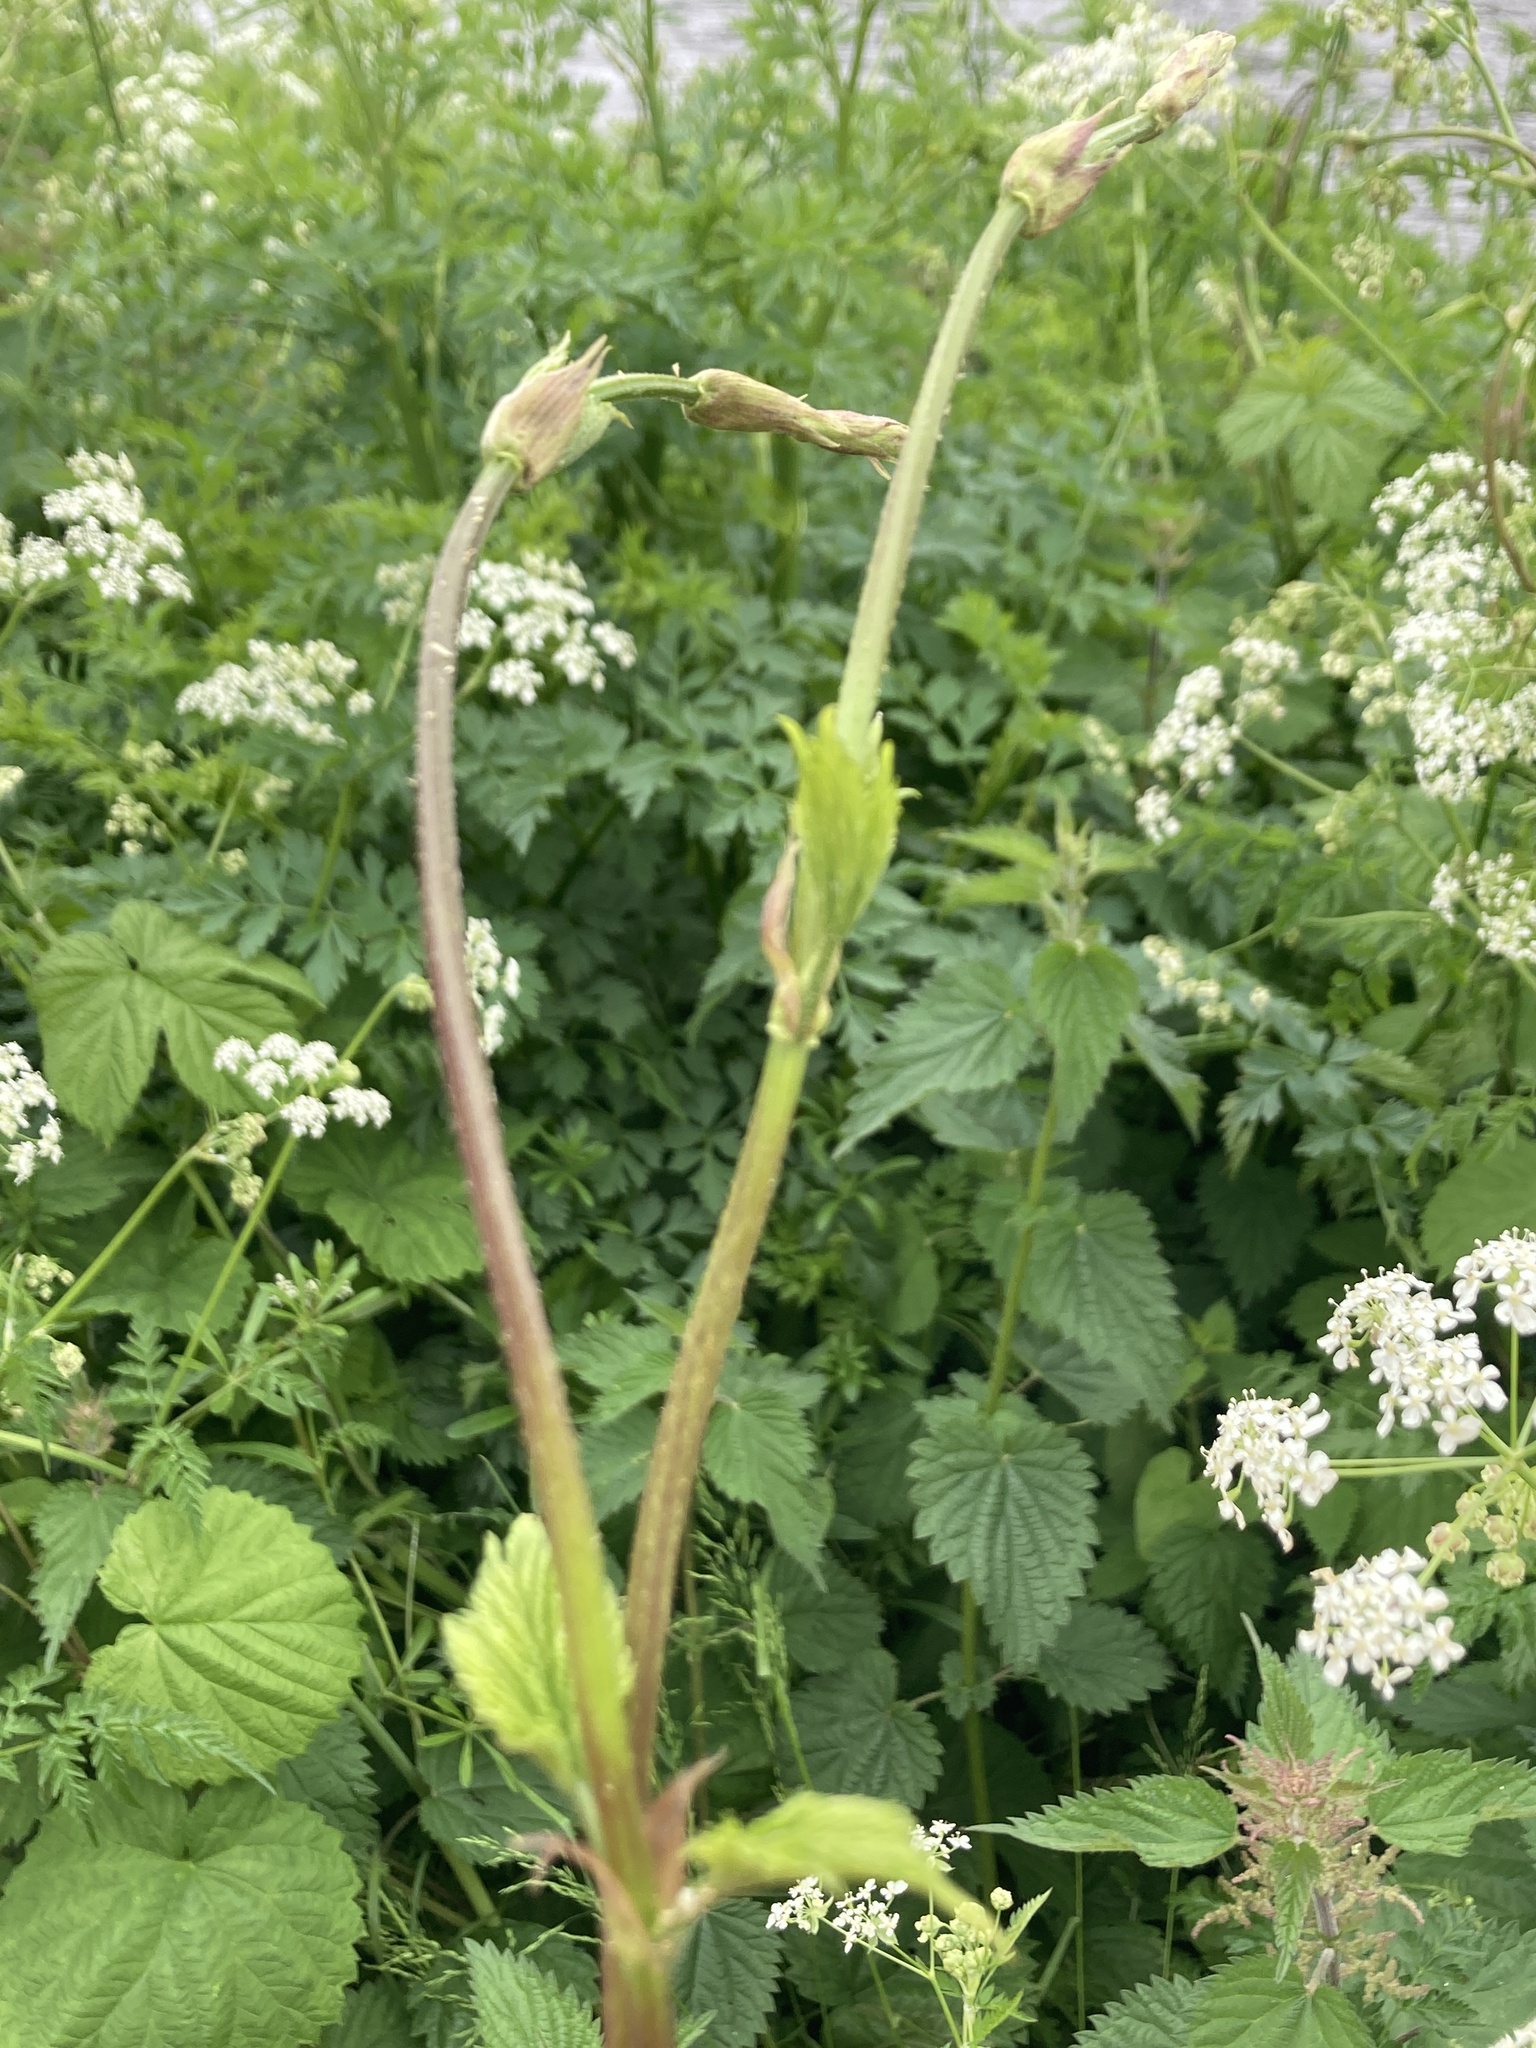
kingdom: Plantae
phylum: Tracheophyta
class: Magnoliopsida
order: Rosales
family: Cannabaceae
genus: Humulus
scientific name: Humulus lupulus
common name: Hop
